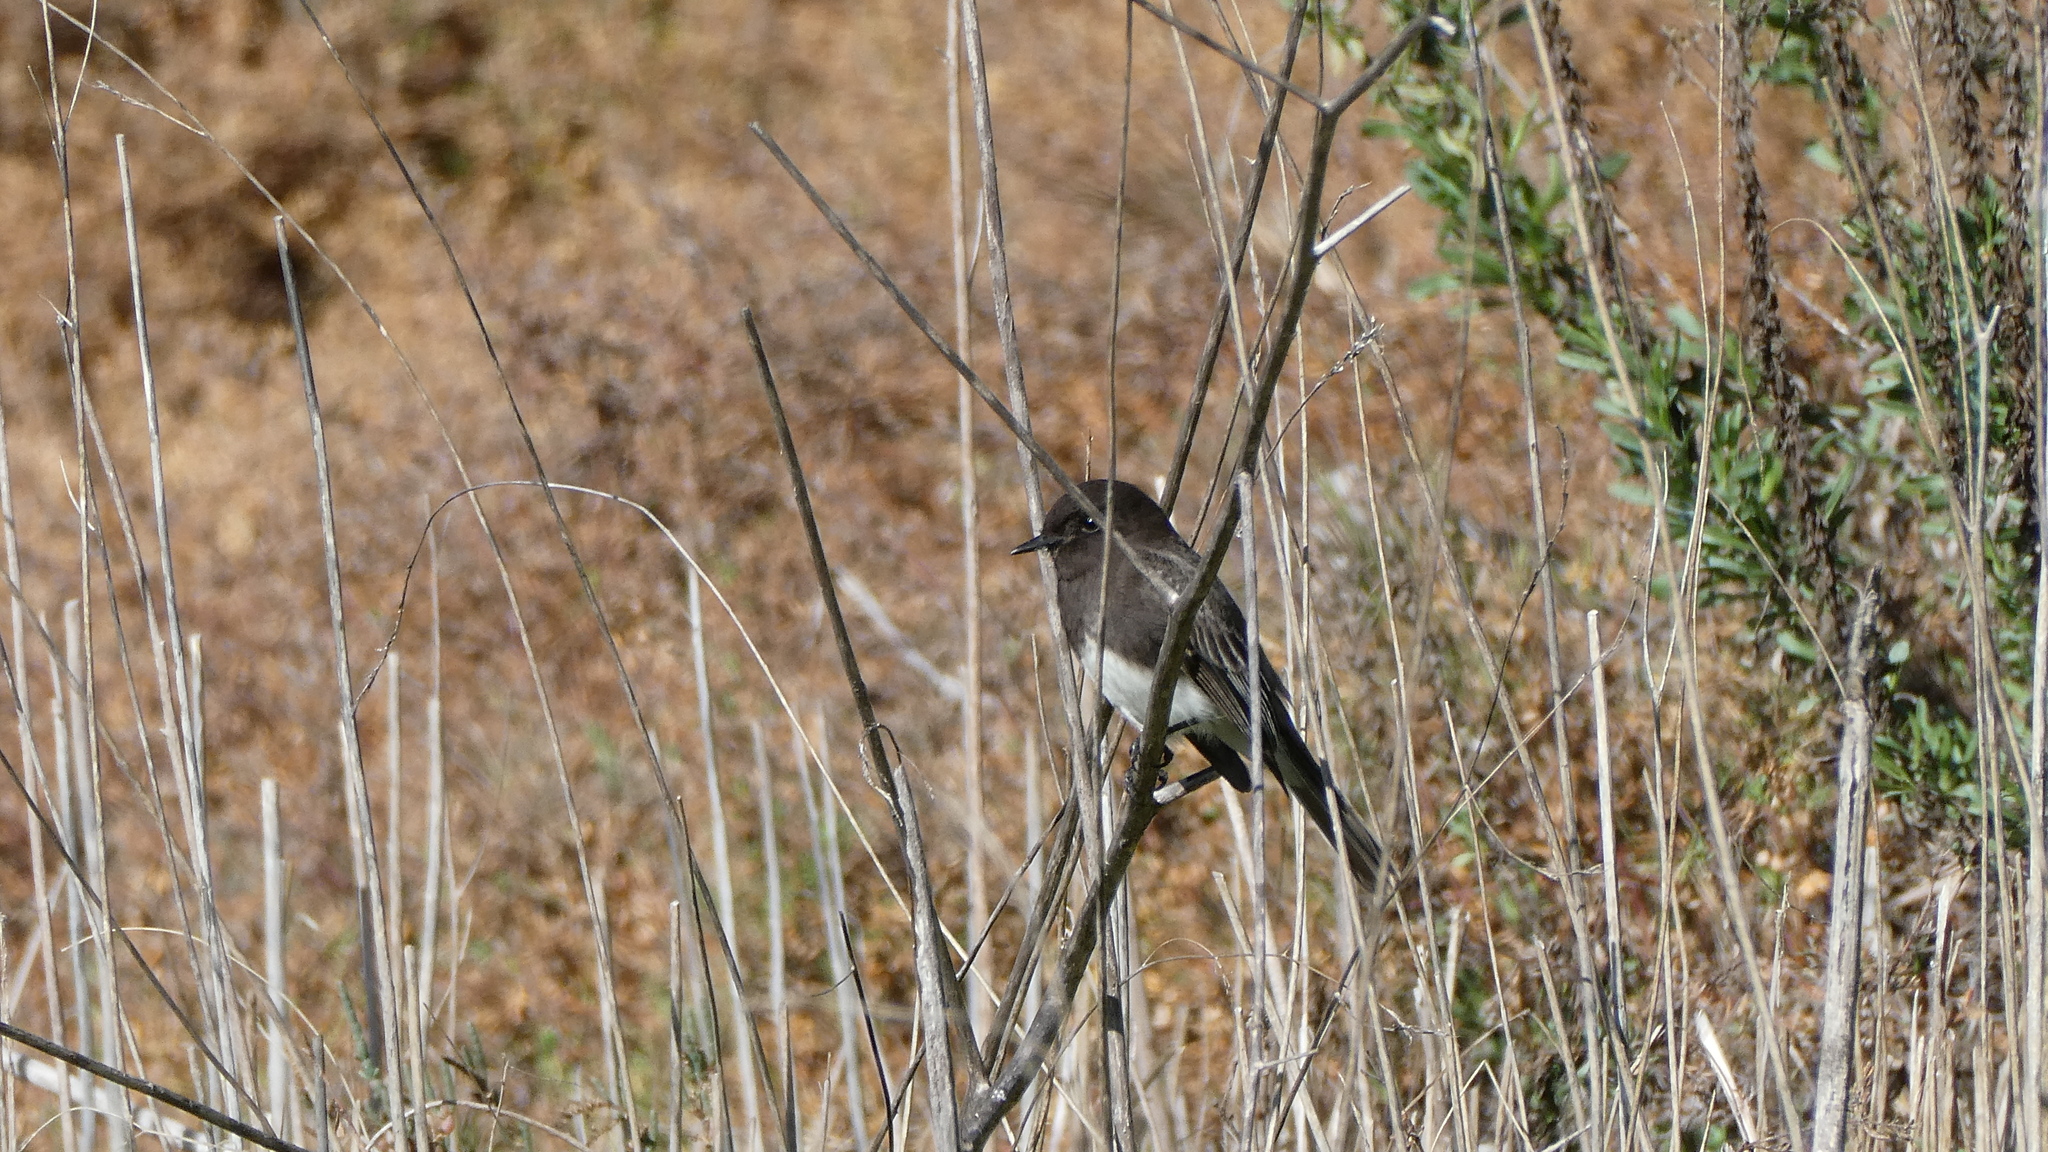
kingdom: Animalia
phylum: Chordata
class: Aves
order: Passeriformes
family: Tyrannidae
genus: Sayornis
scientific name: Sayornis nigricans
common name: Black phoebe
